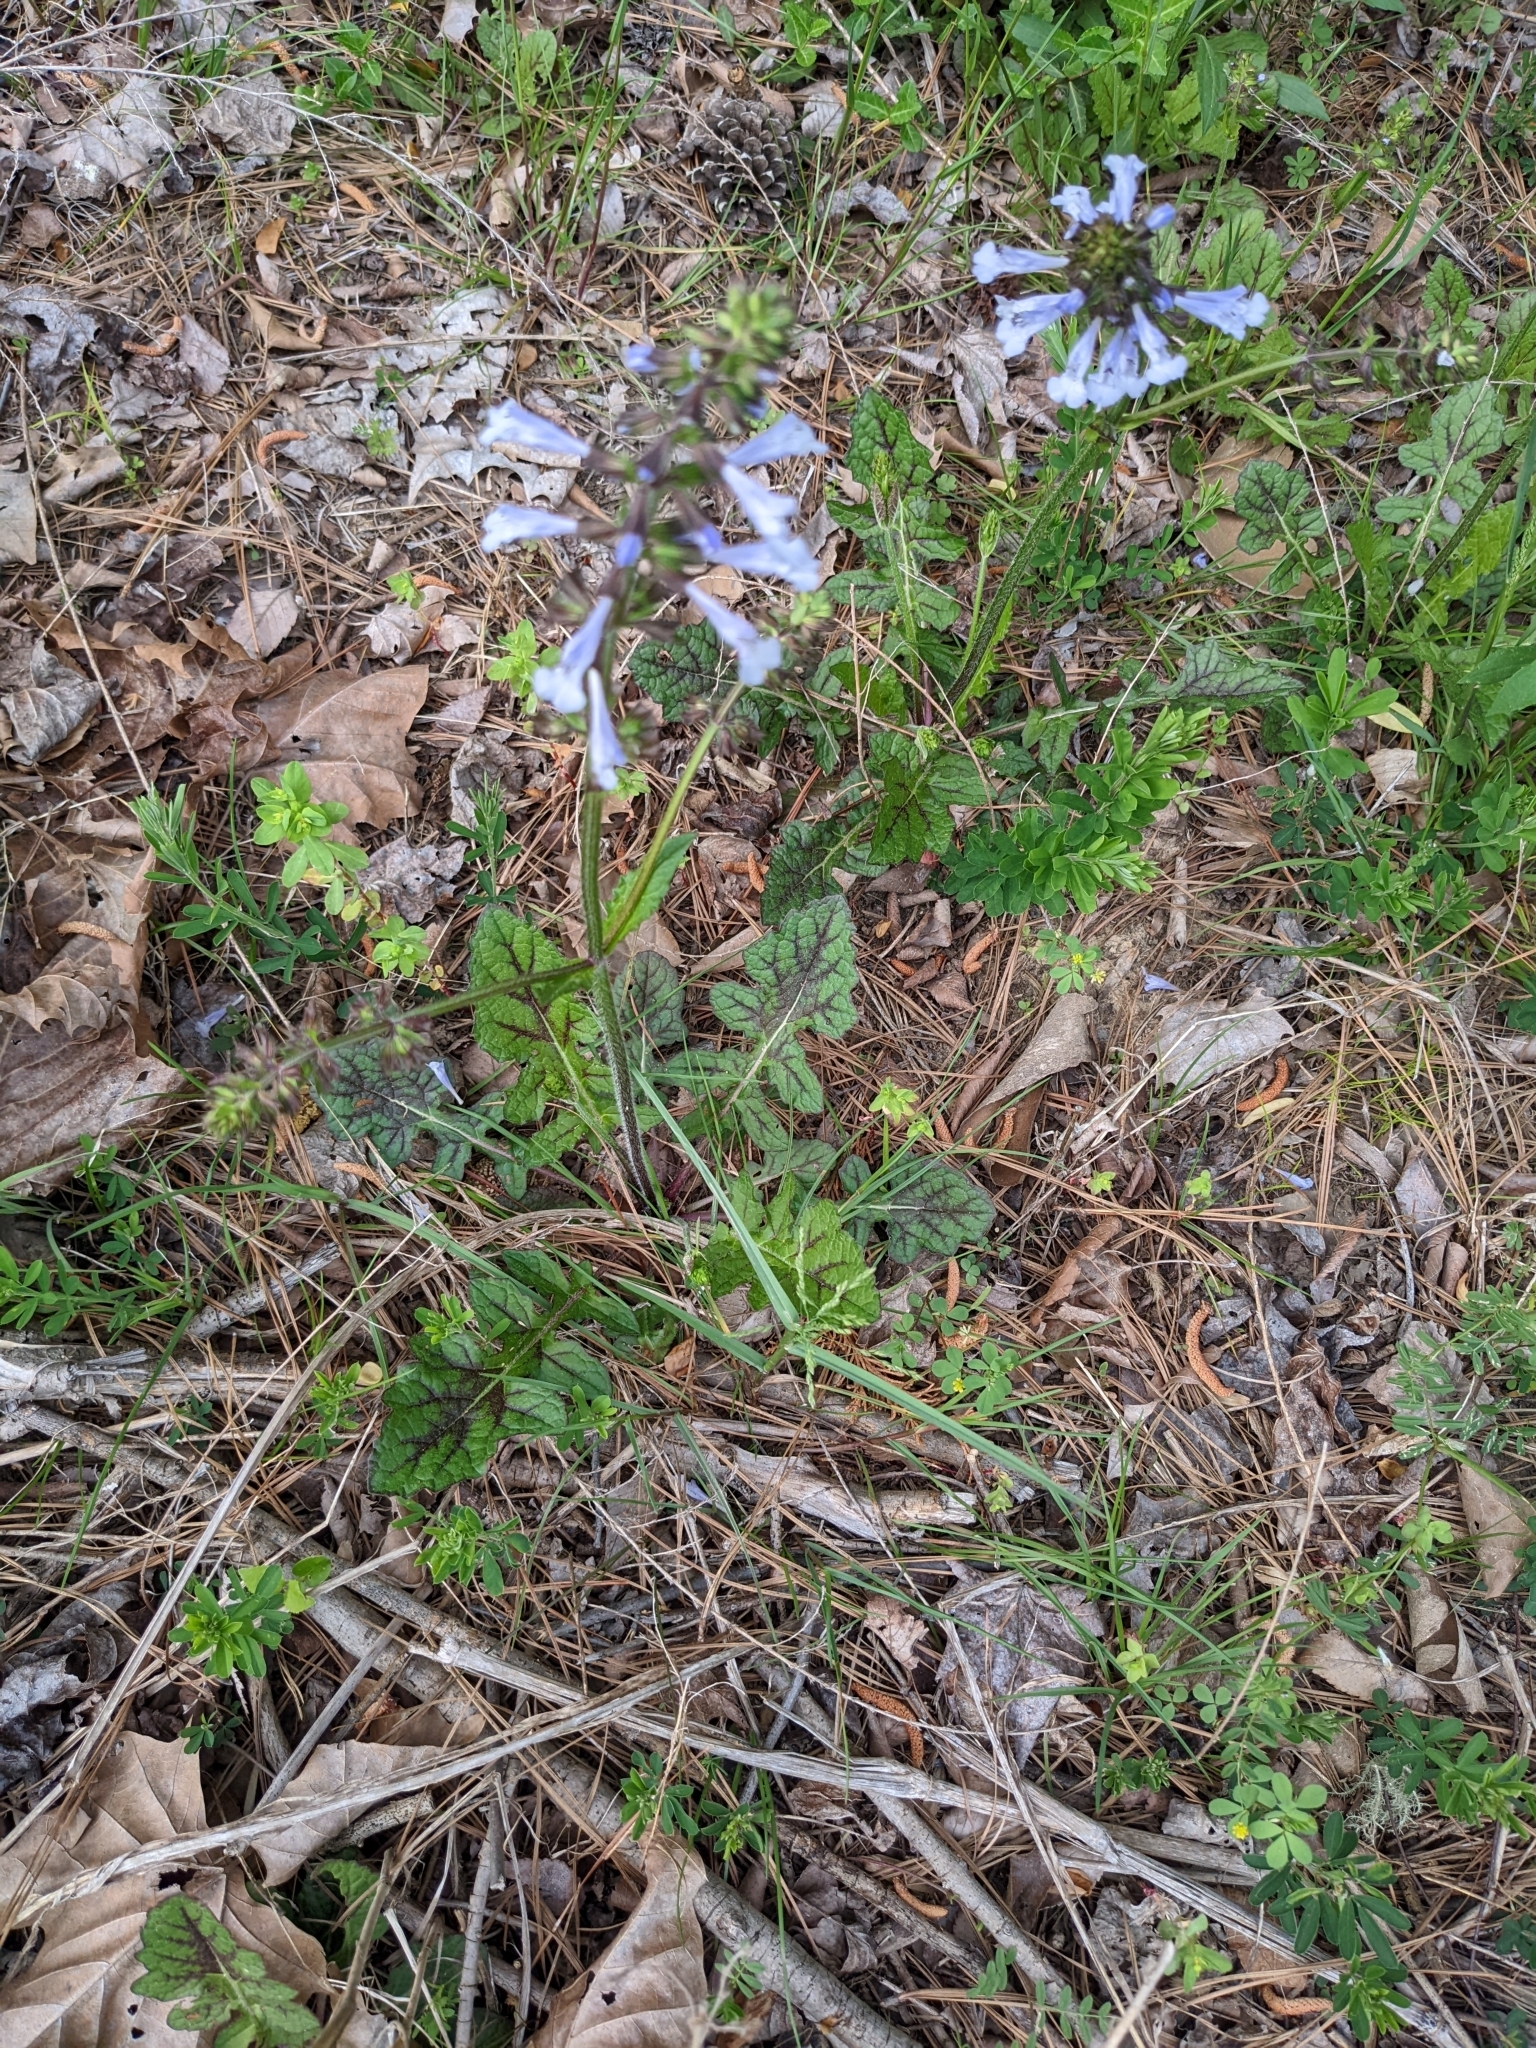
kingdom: Plantae
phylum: Tracheophyta
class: Magnoliopsida
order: Lamiales
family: Lamiaceae
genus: Salvia
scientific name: Salvia lyrata
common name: Cancerweed
